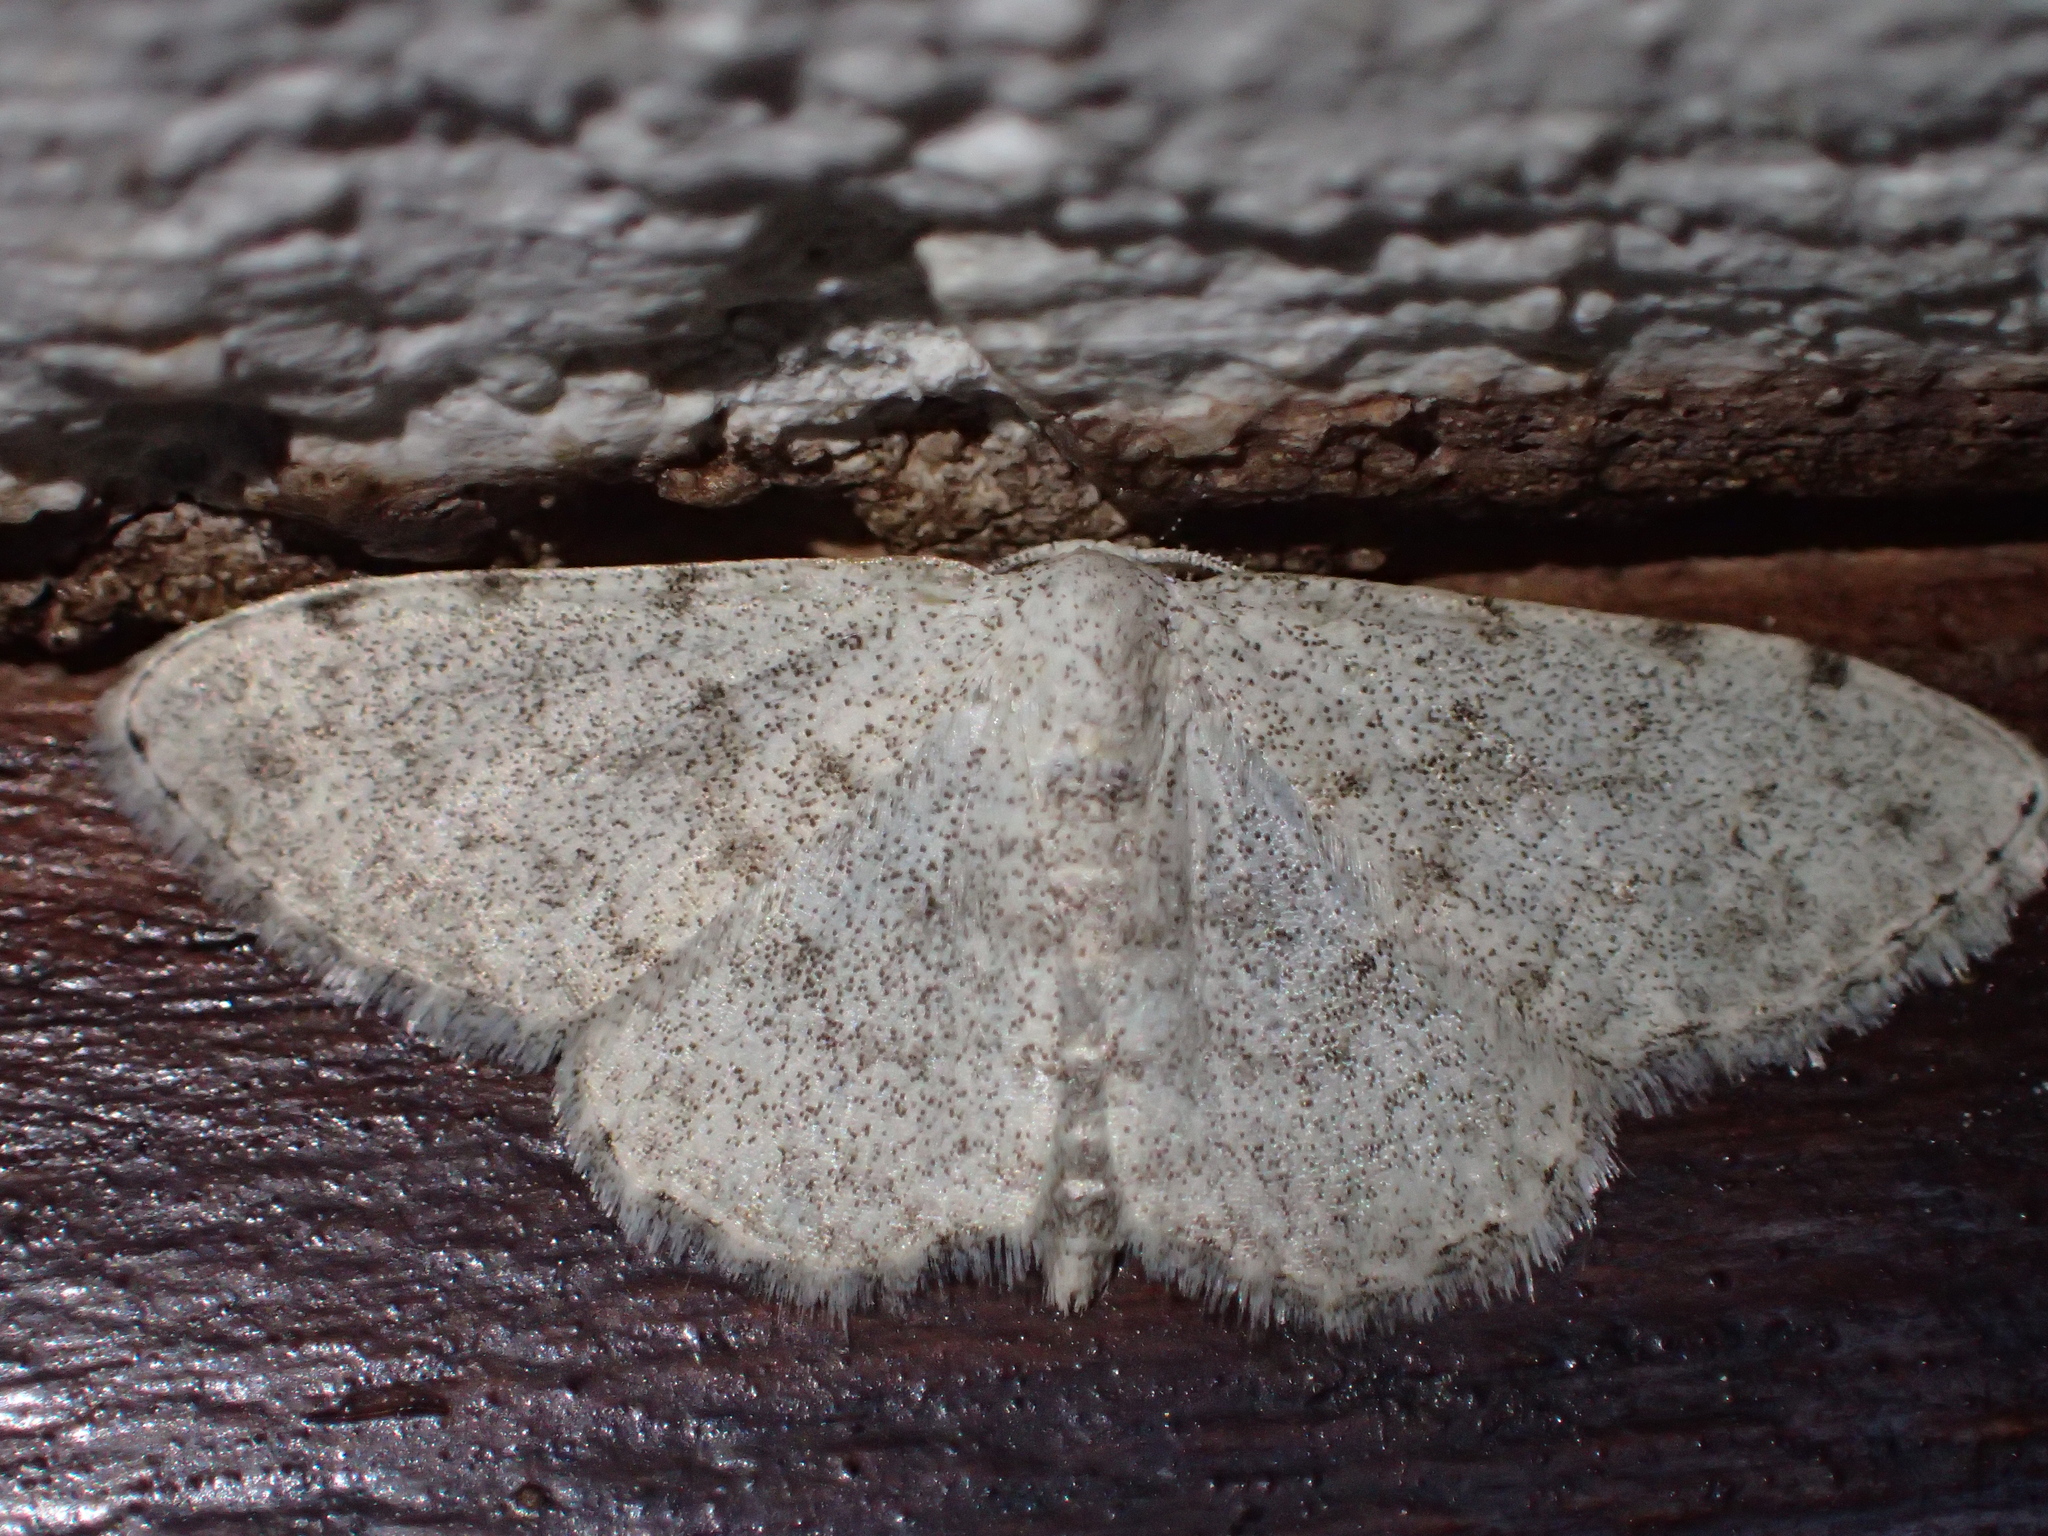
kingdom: Animalia
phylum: Arthropoda
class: Insecta
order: Lepidoptera
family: Geometridae
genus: Glossotrophia
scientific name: Glossotrophia confinaria
